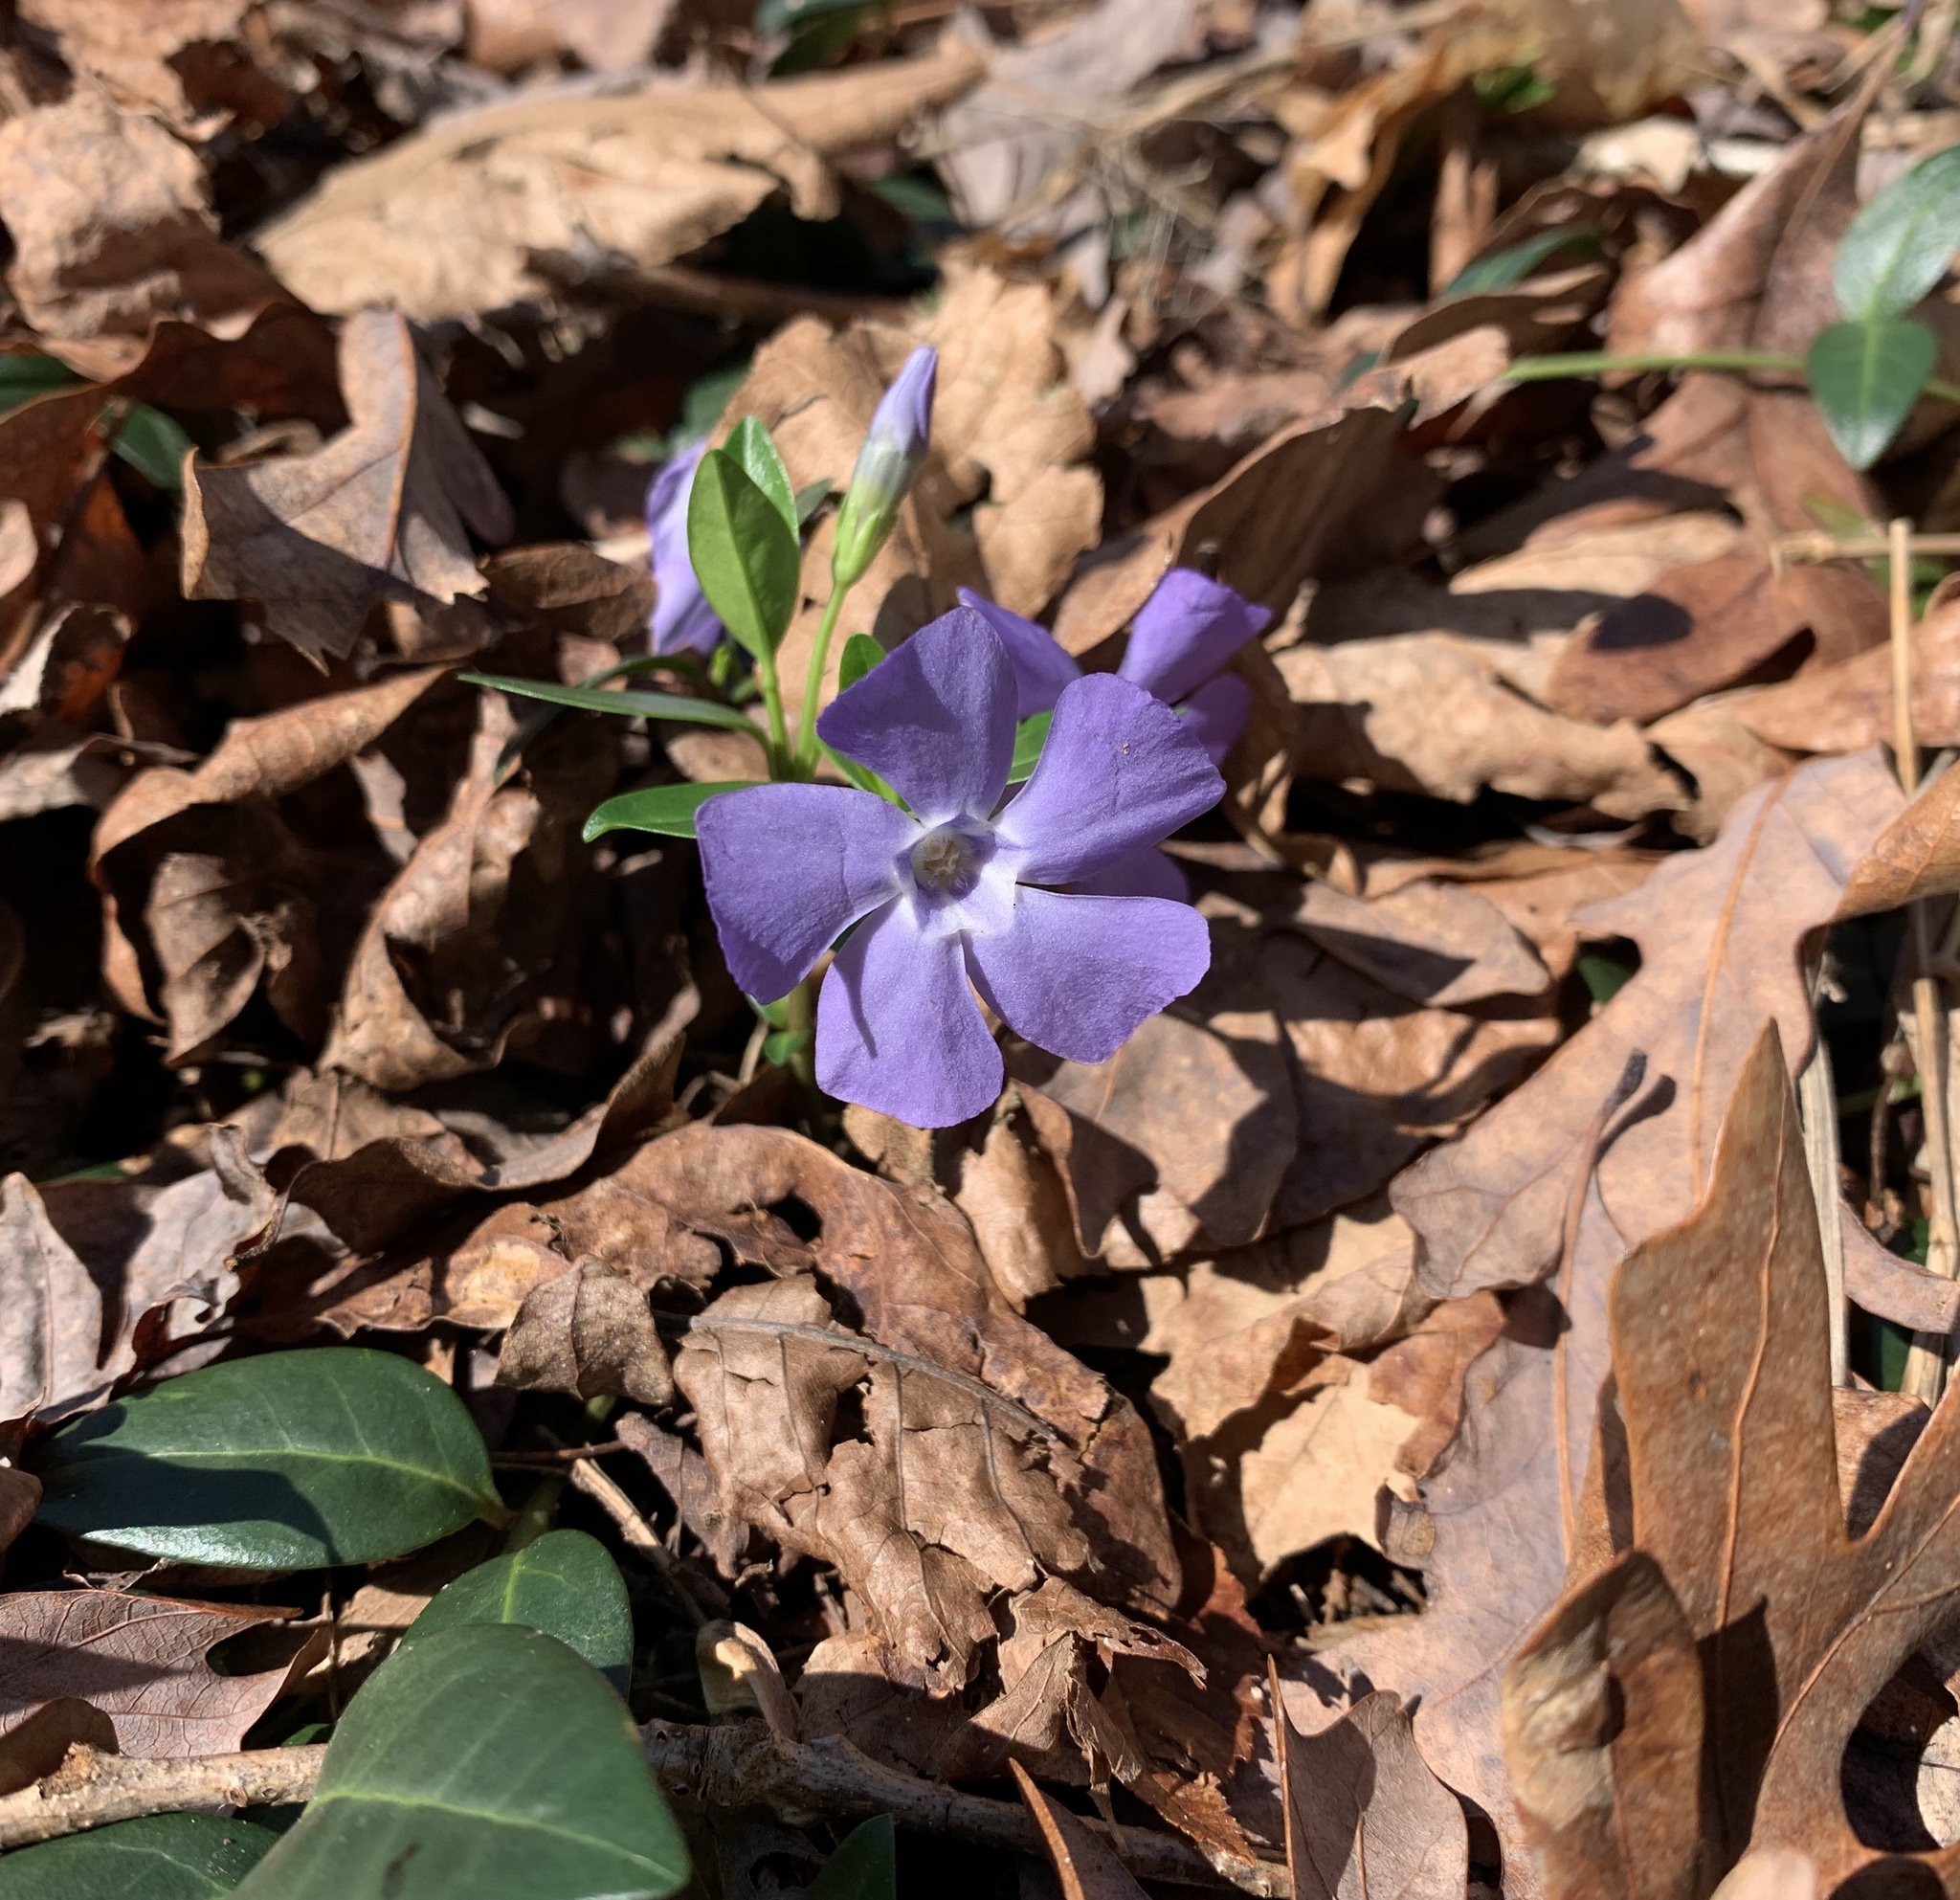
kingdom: Plantae
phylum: Tracheophyta
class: Magnoliopsida
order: Gentianales
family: Apocynaceae
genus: Vinca
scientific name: Vinca minor
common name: Lesser periwinkle
